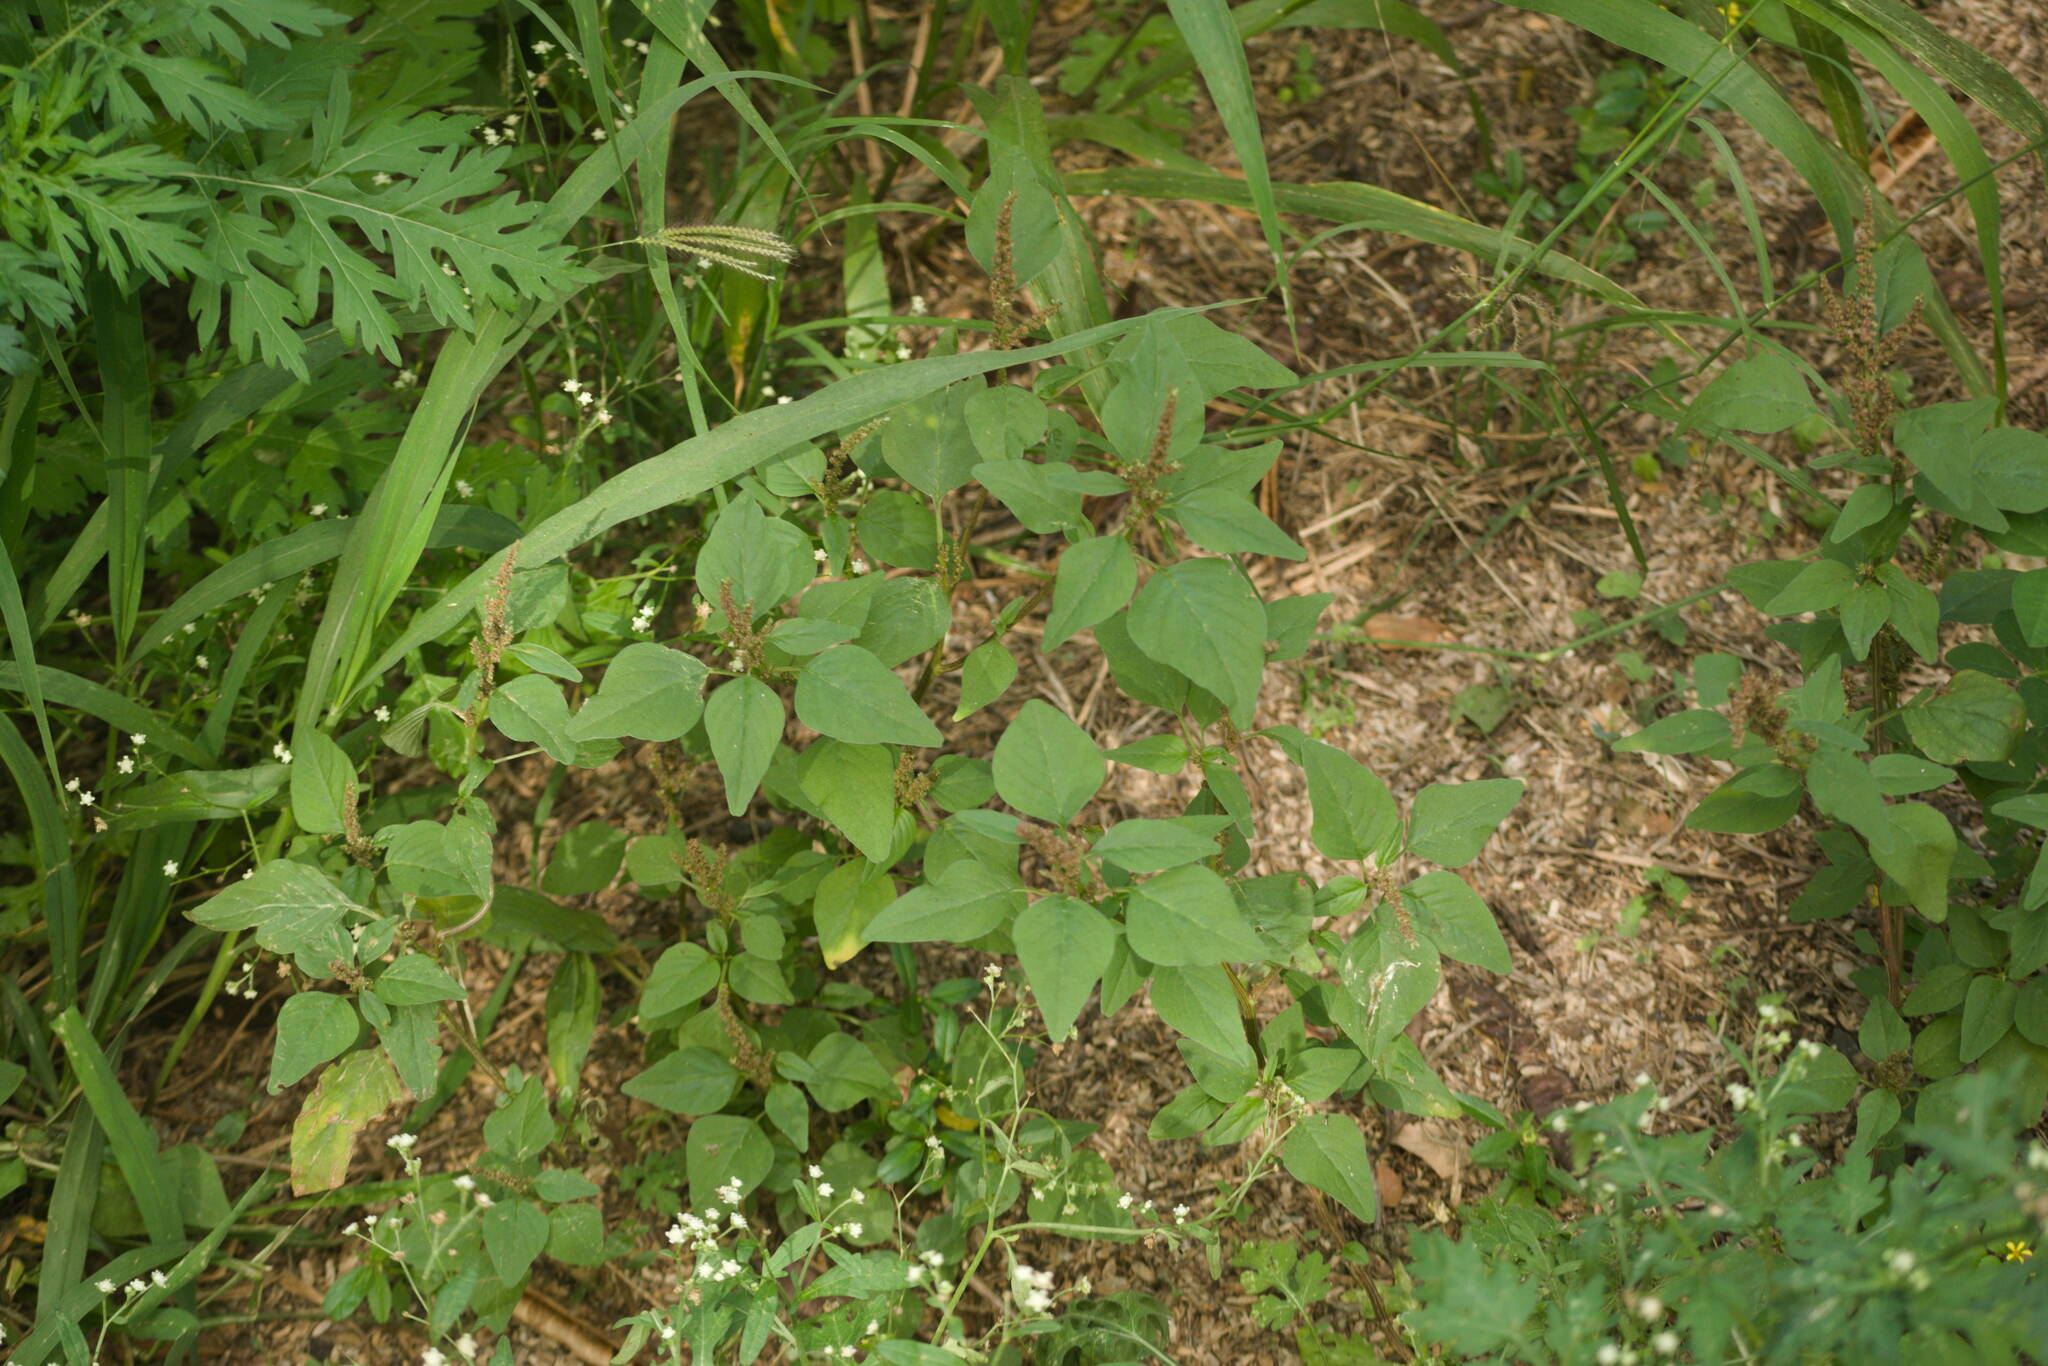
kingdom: Plantae
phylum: Tracheophyta
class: Magnoliopsida
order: Caryophyllales
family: Amaranthaceae
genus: Amaranthus
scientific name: Amaranthus viridis
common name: Slender amaranth
